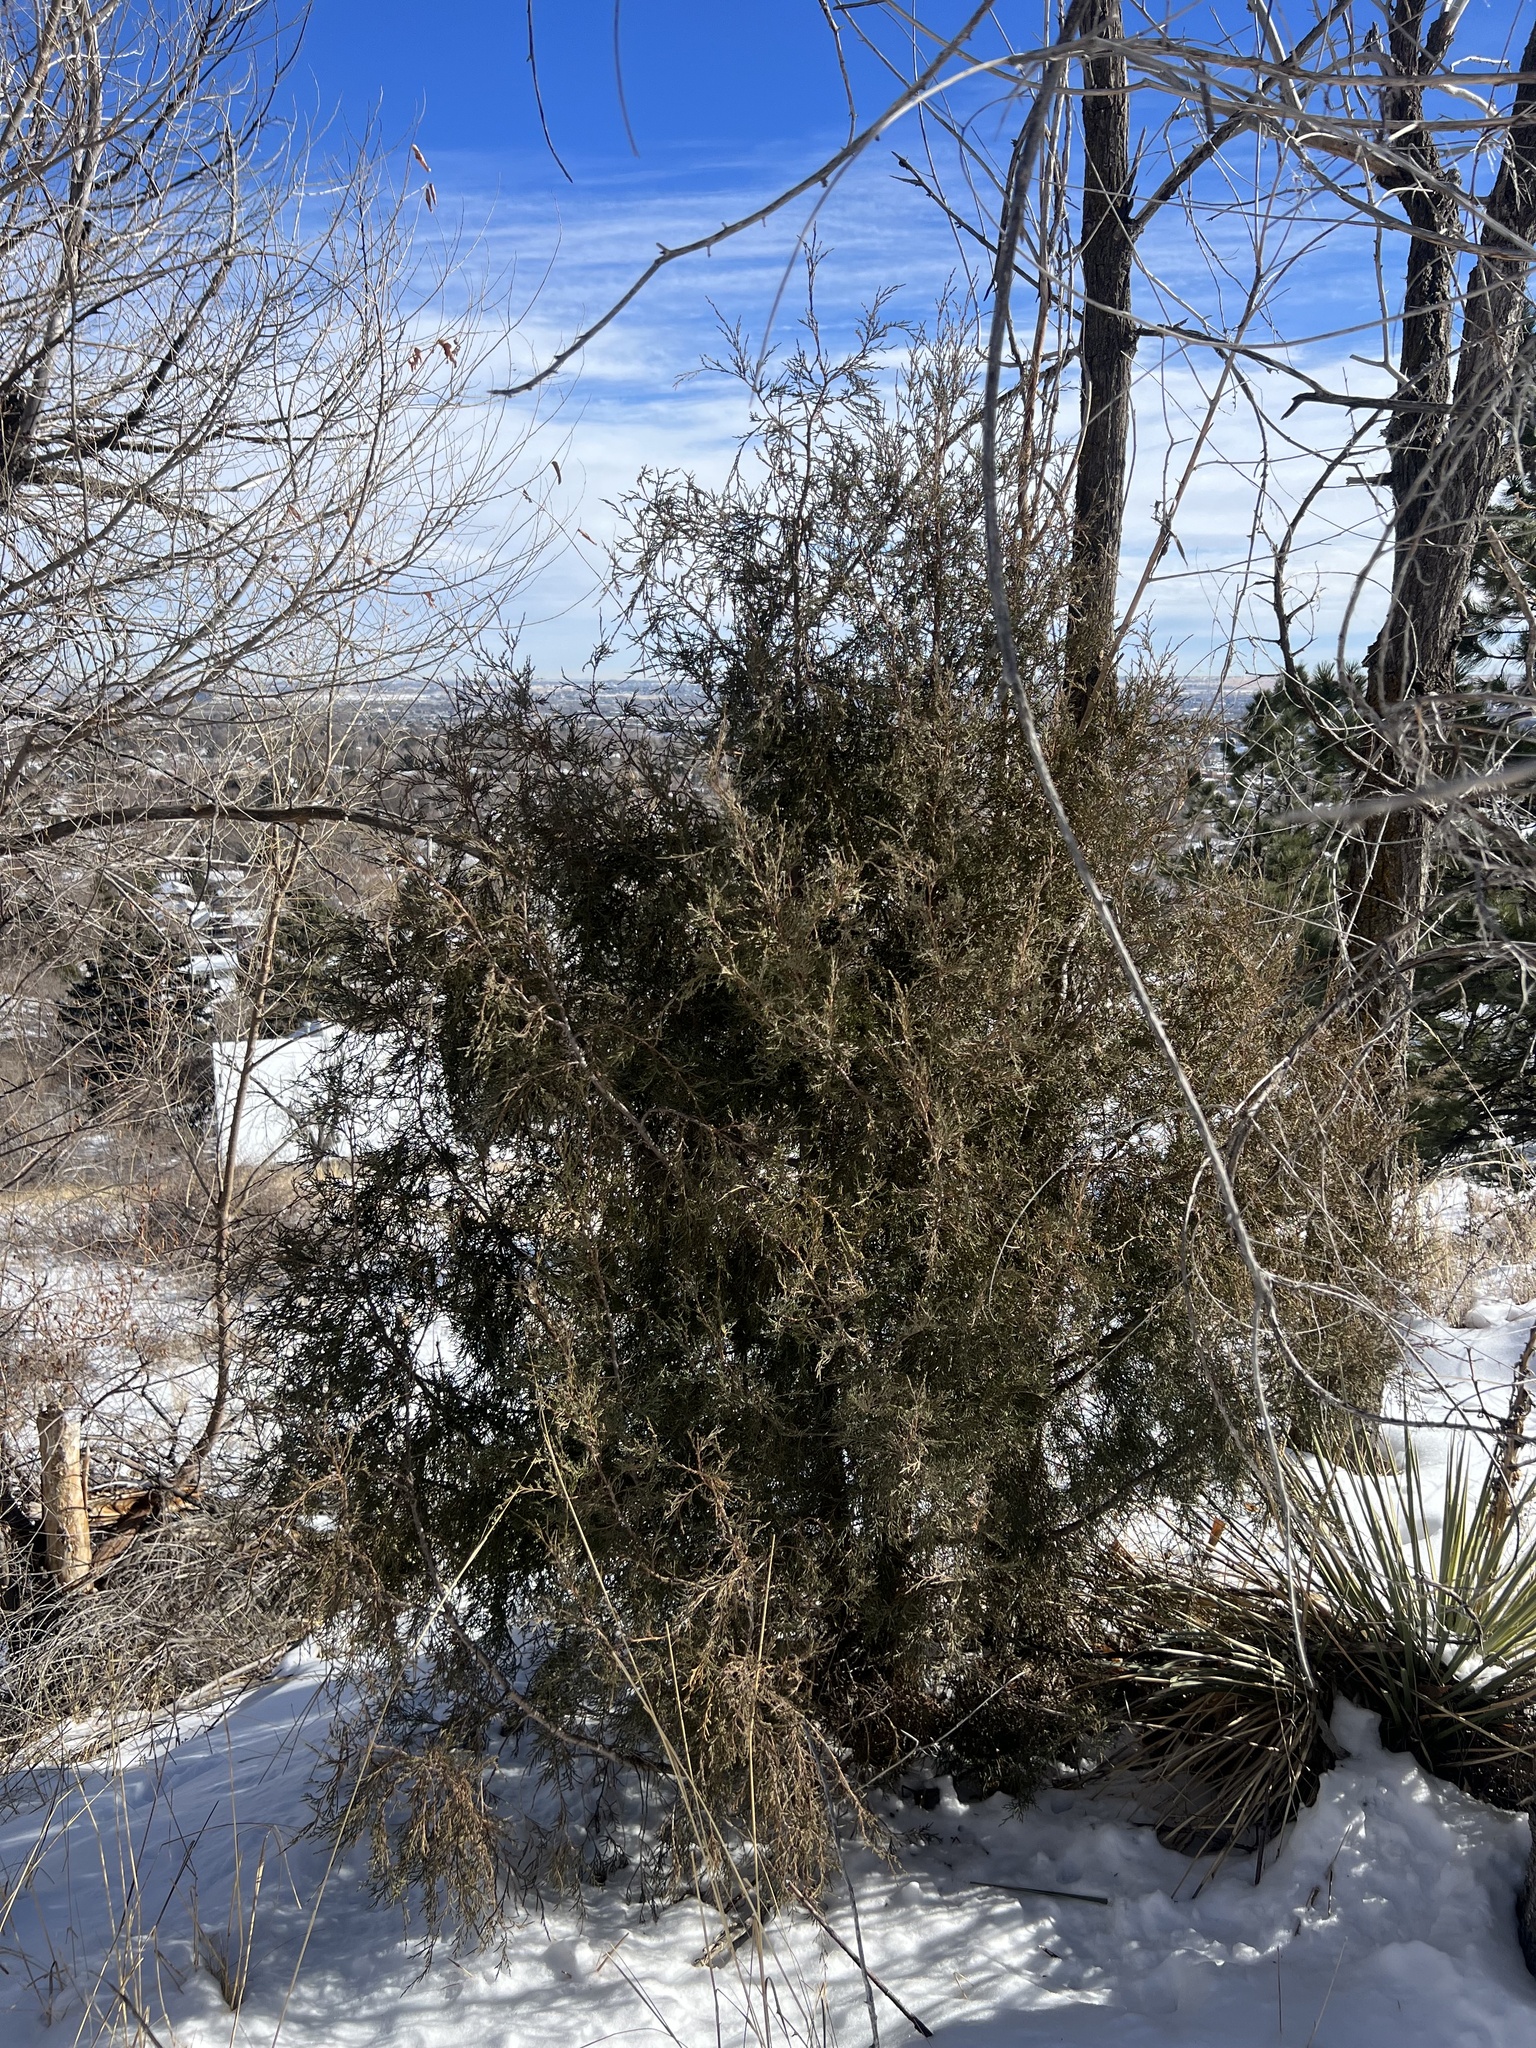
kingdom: Plantae
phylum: Tracheophyta
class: Pinopsida
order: Pinales
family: Cupressaceae
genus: Juniperus
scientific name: Juniperus scopulorum
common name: Rocky mountain juniper
